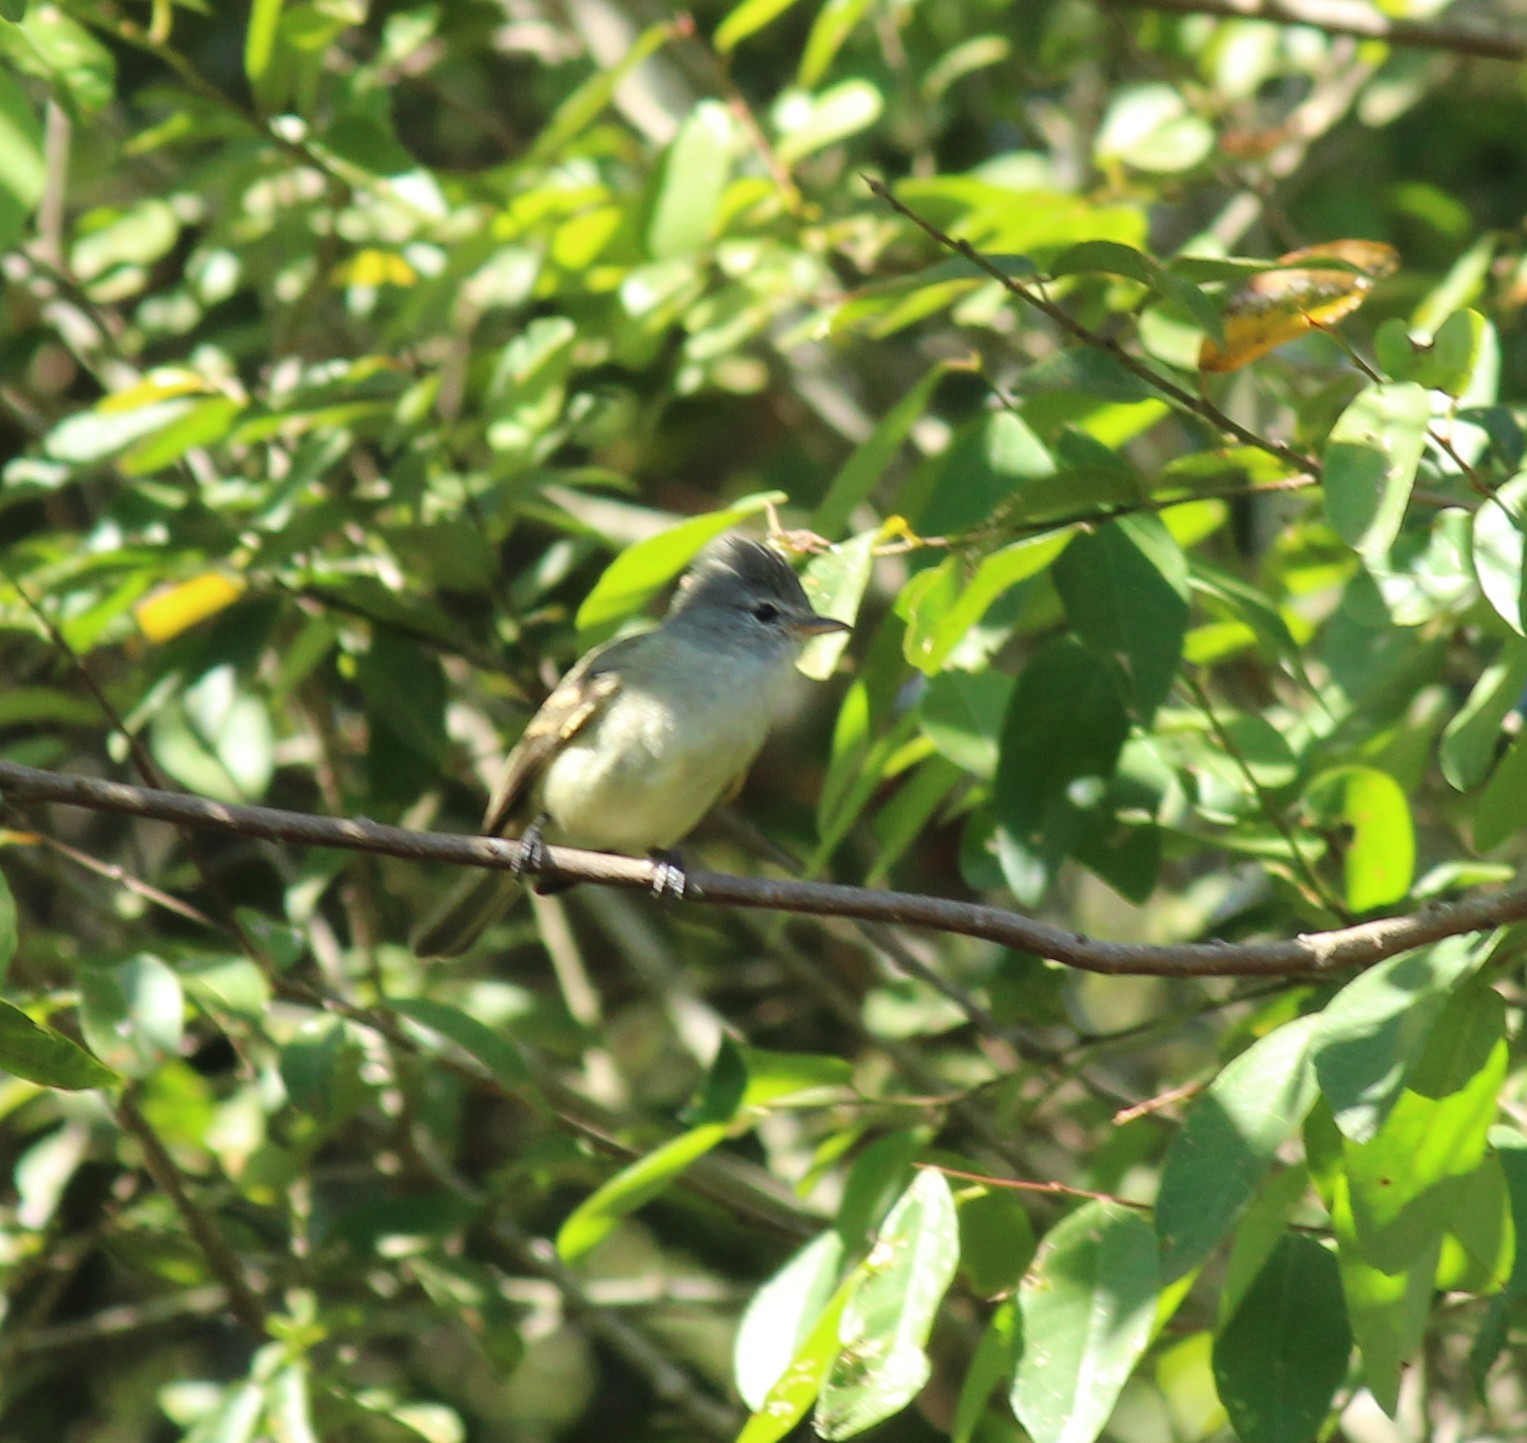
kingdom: Animalia
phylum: Chordata
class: Aves
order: Passeriformes
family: Tyrannidae
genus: Camptostoma
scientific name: Camptostoma obsoletum
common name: Southern beardless-tyrannulet
